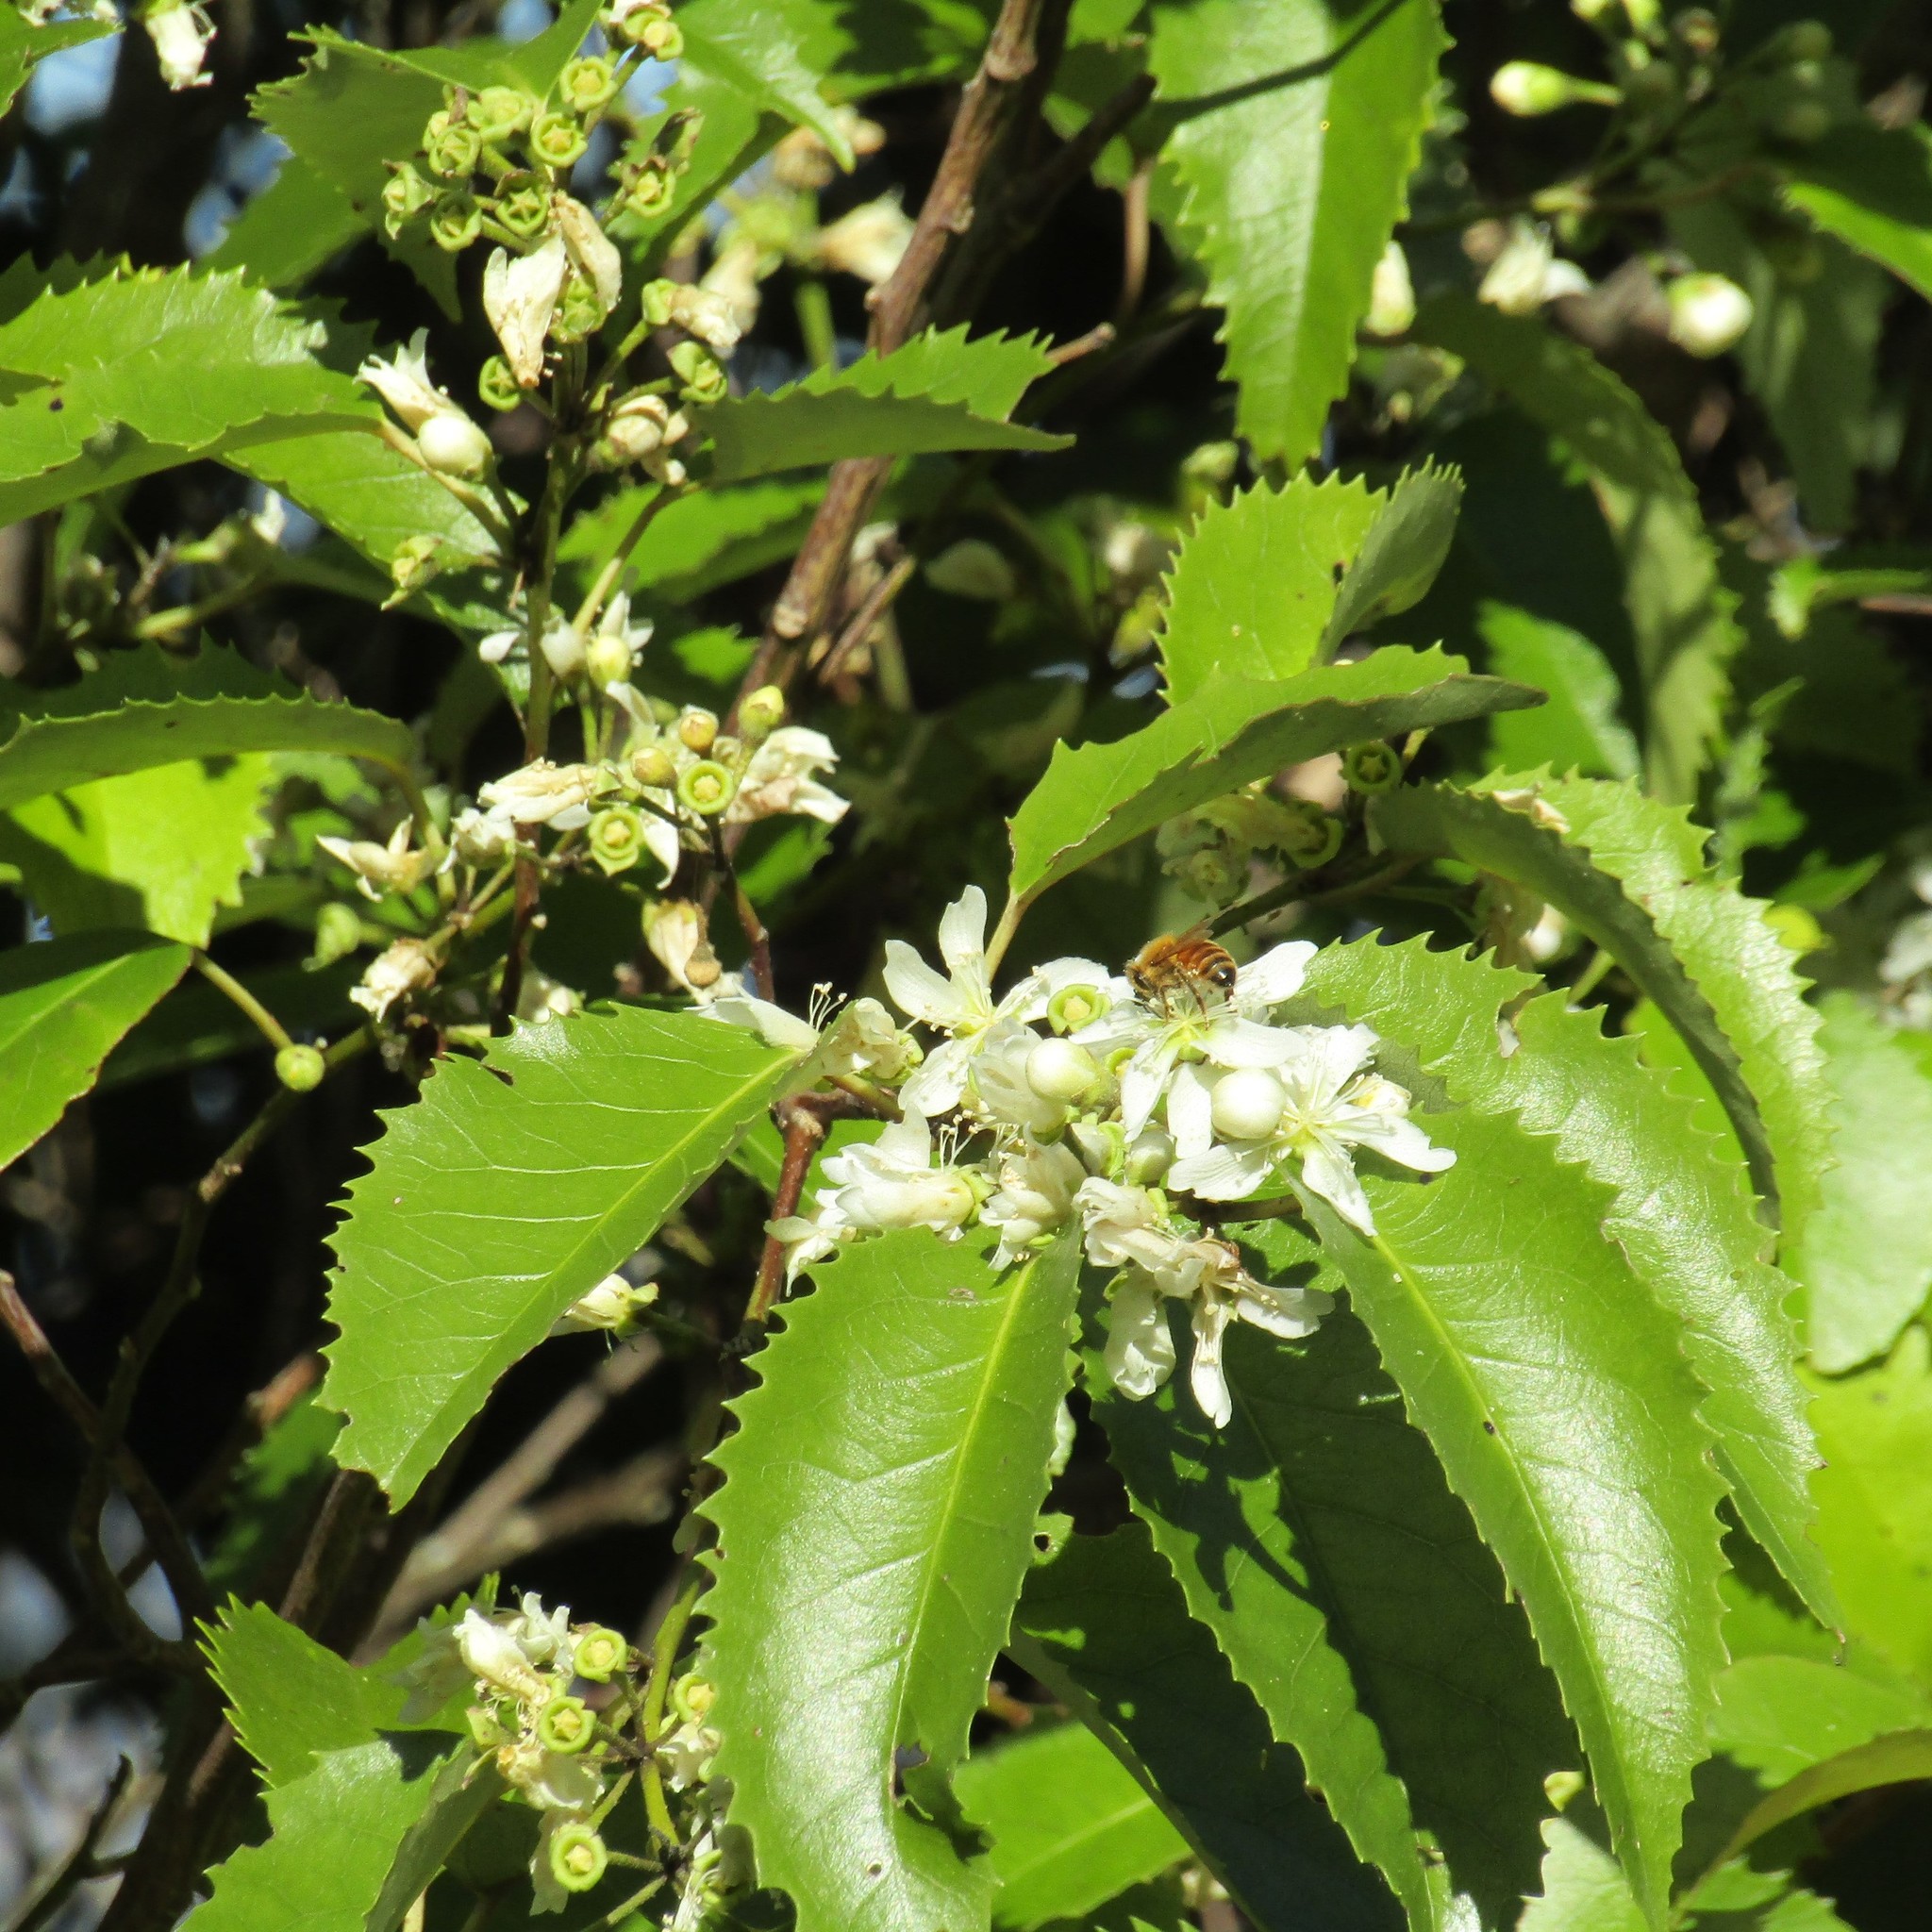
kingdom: Plantae
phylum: Tracheophyta
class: Magnoliopsida
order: Malvales
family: Malvaceae
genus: Hoheria
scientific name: Hoheria populnea
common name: Lacebark
